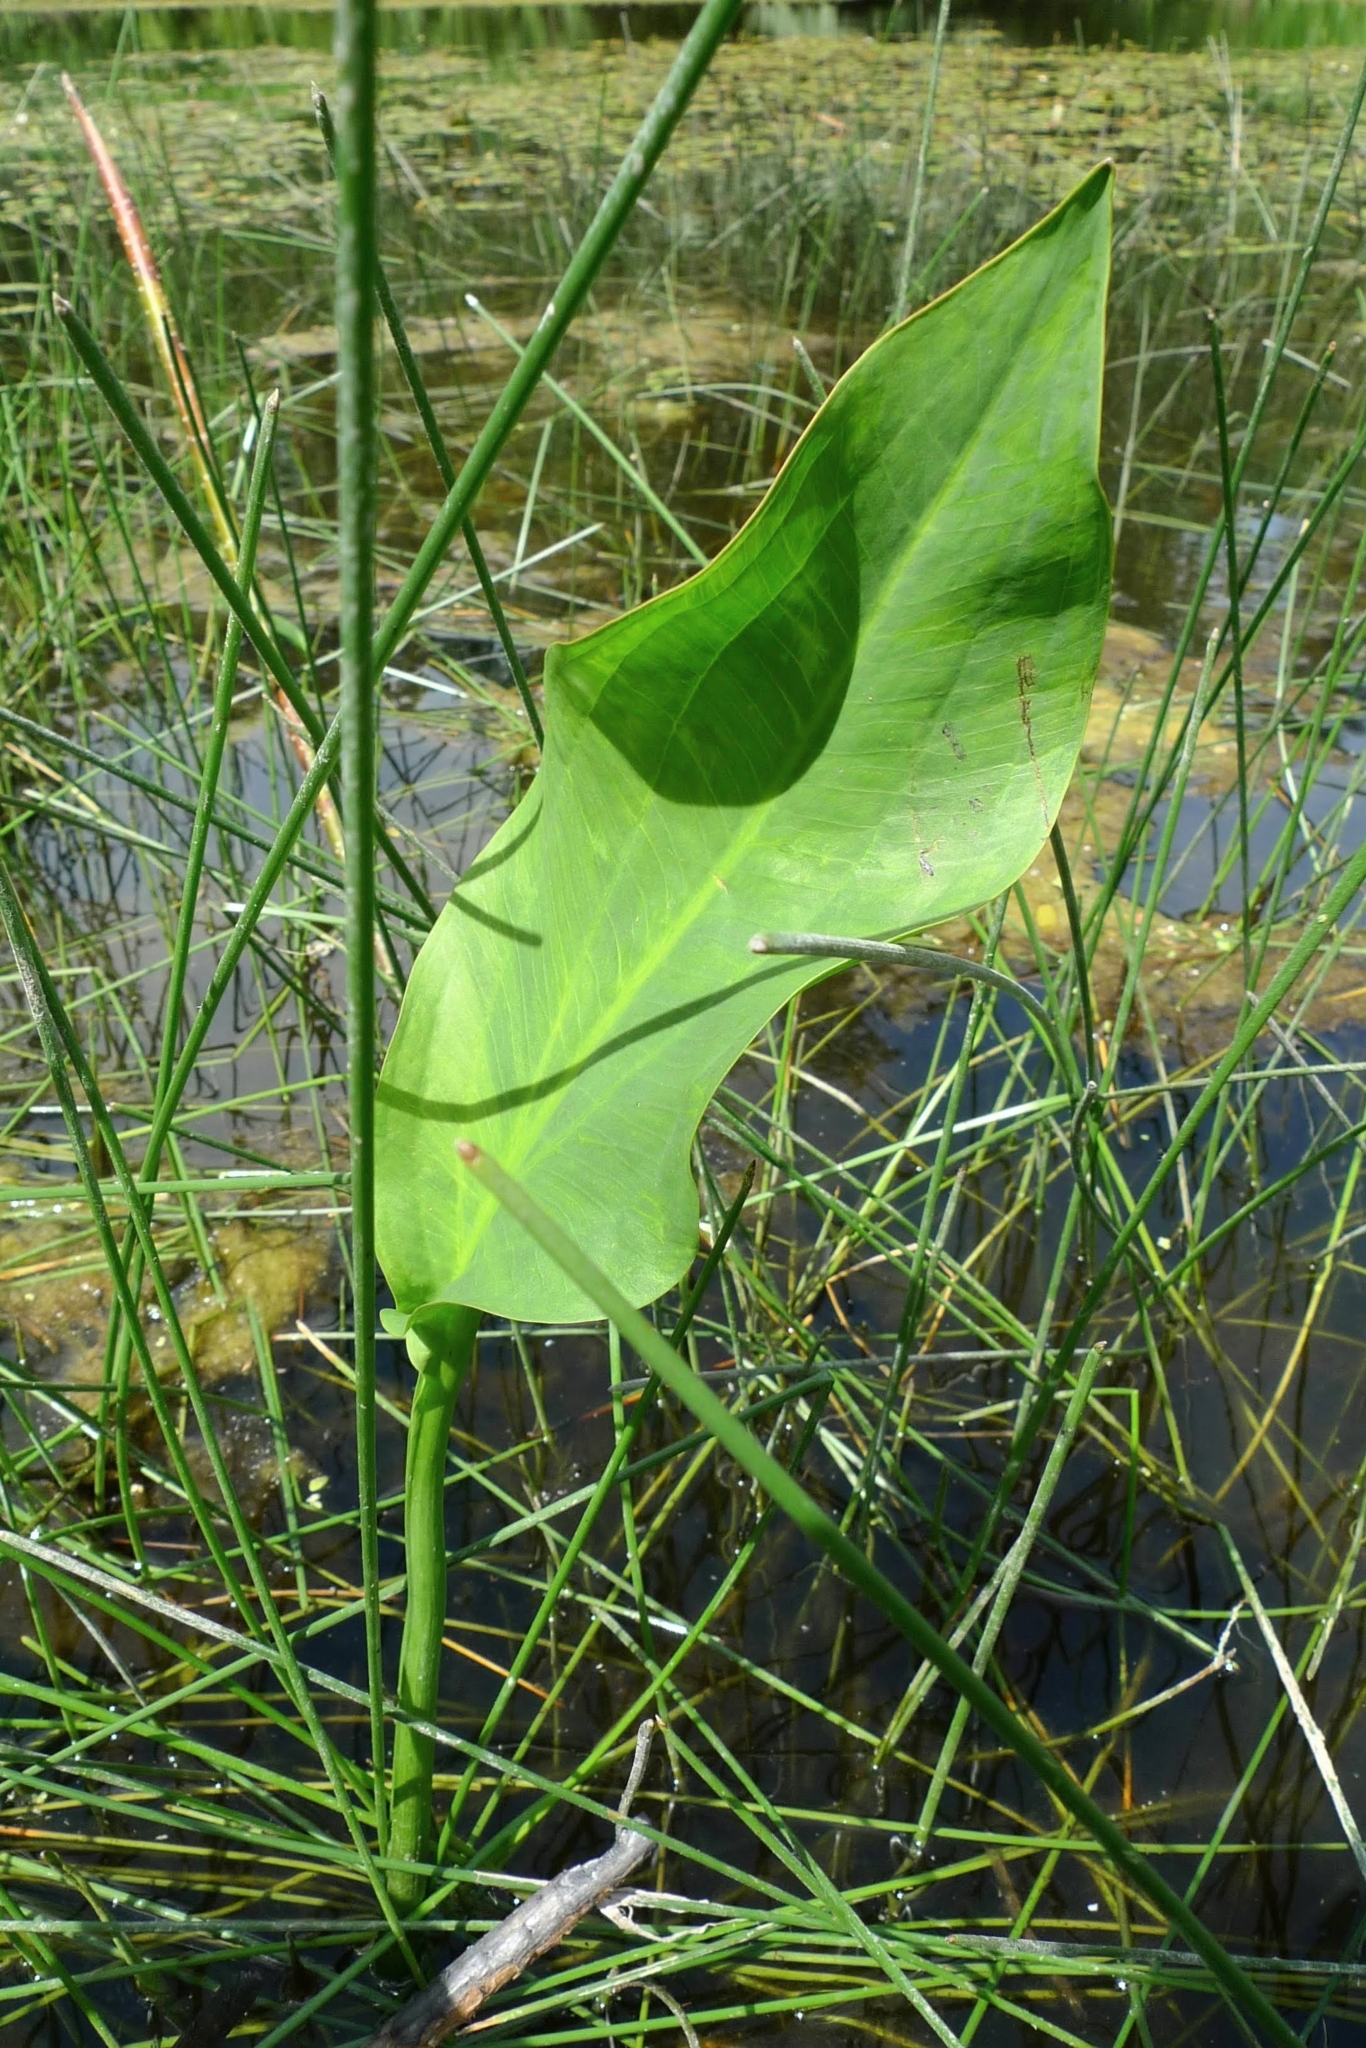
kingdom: Plantae
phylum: Tracheophyta
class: Liliopsida
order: Alismatales
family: Alismataceae
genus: Alisma
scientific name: Alisma plantago-aquatica
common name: Water-plantain
